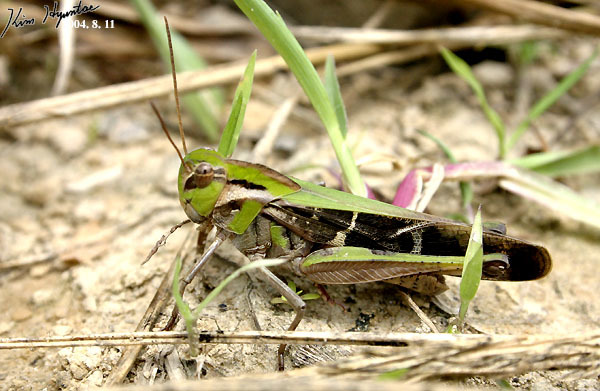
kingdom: Animalia
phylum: Arthropoda
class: Insecta
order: Orthoptera
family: Acrididae
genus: Gastrimargus
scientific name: Gastrimargus marmoratus
